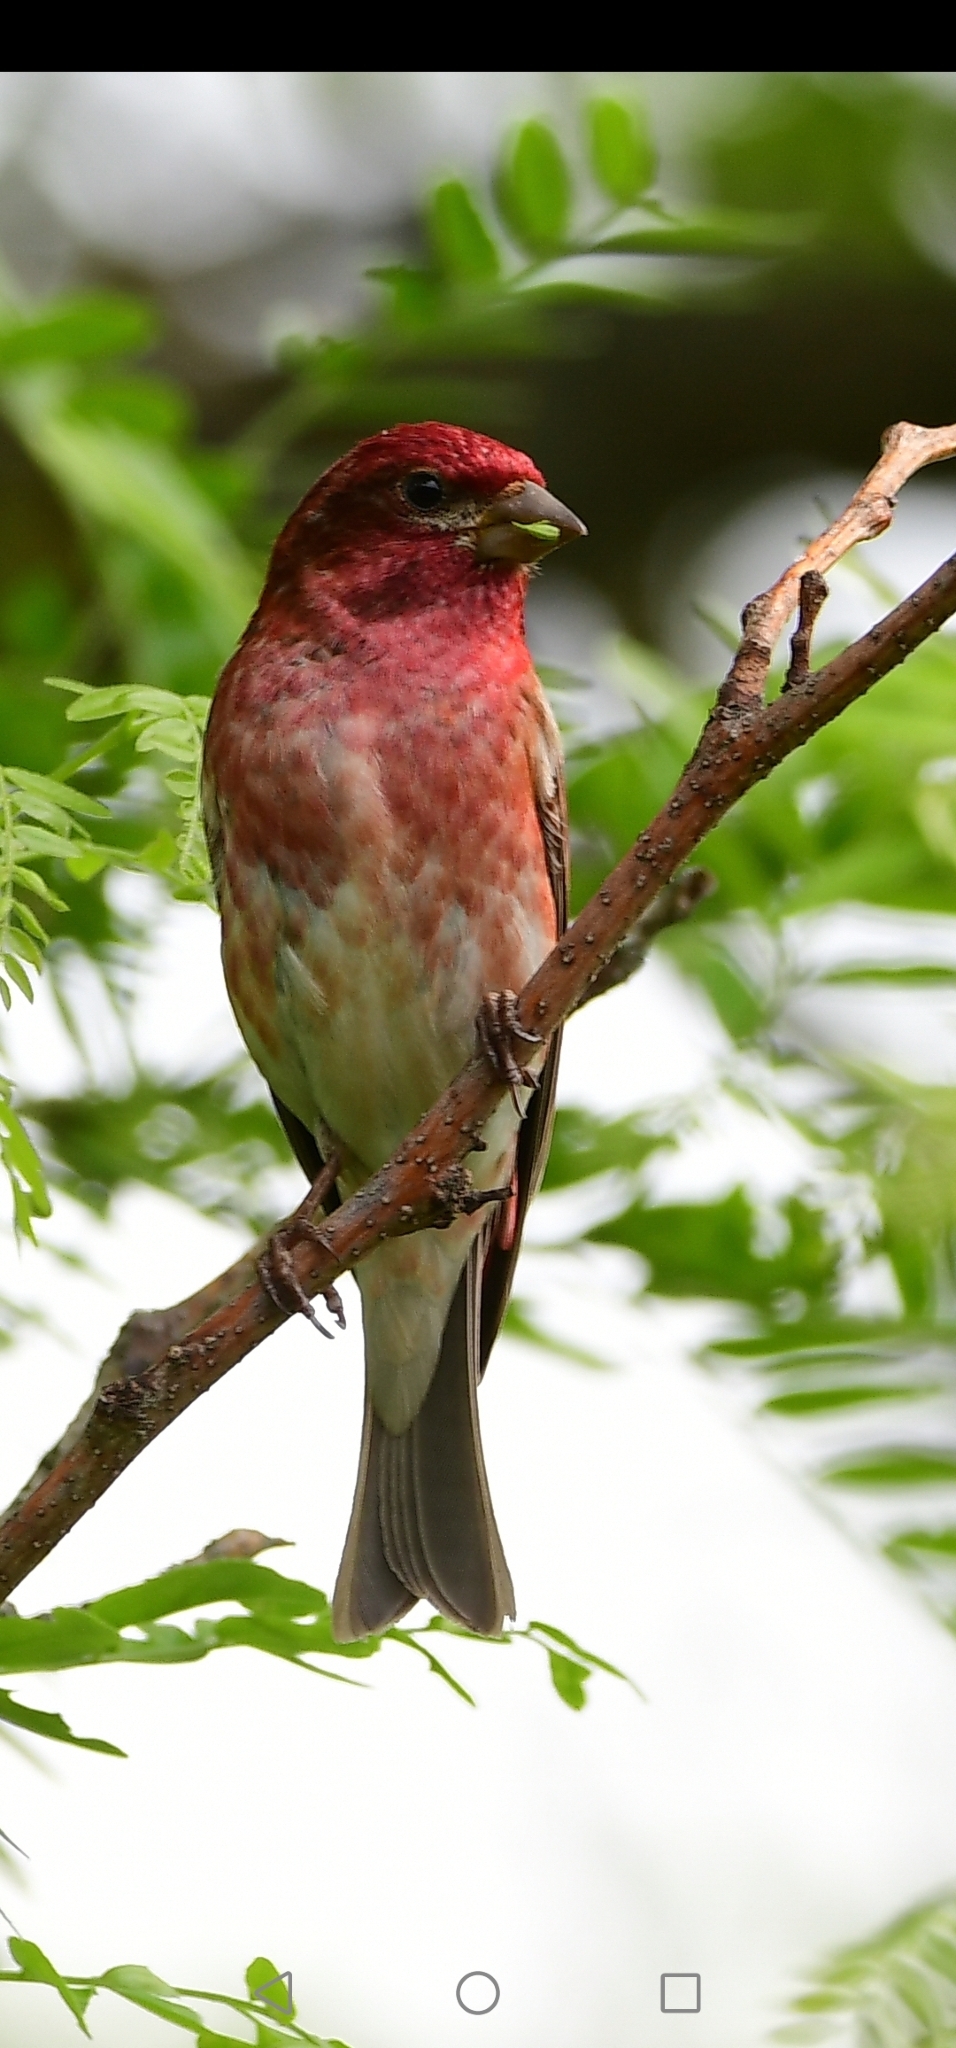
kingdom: Animalia
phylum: Chordata
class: Aves
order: Passeriformes
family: Fringillidae
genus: Haemorhous
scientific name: Haemorhous purpureus
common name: Purple finch
